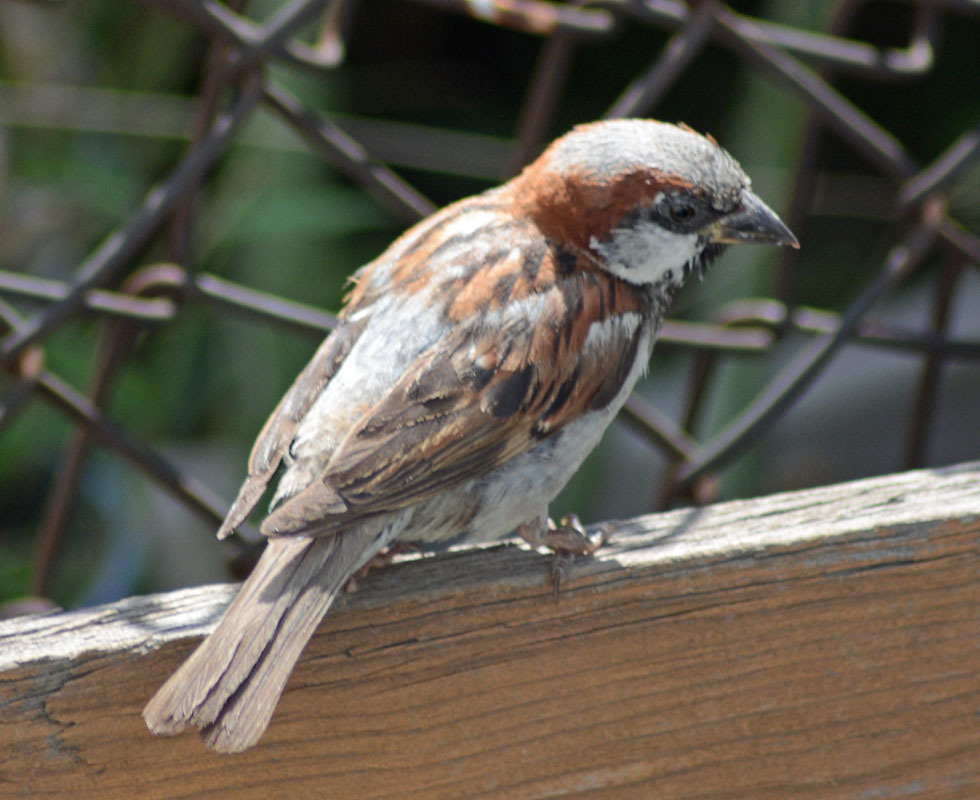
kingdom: Animalia
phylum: Chordata
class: Aves
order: Passeriformes
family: Passeridae
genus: Passer
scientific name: Passer domesticus
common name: House sparrow
